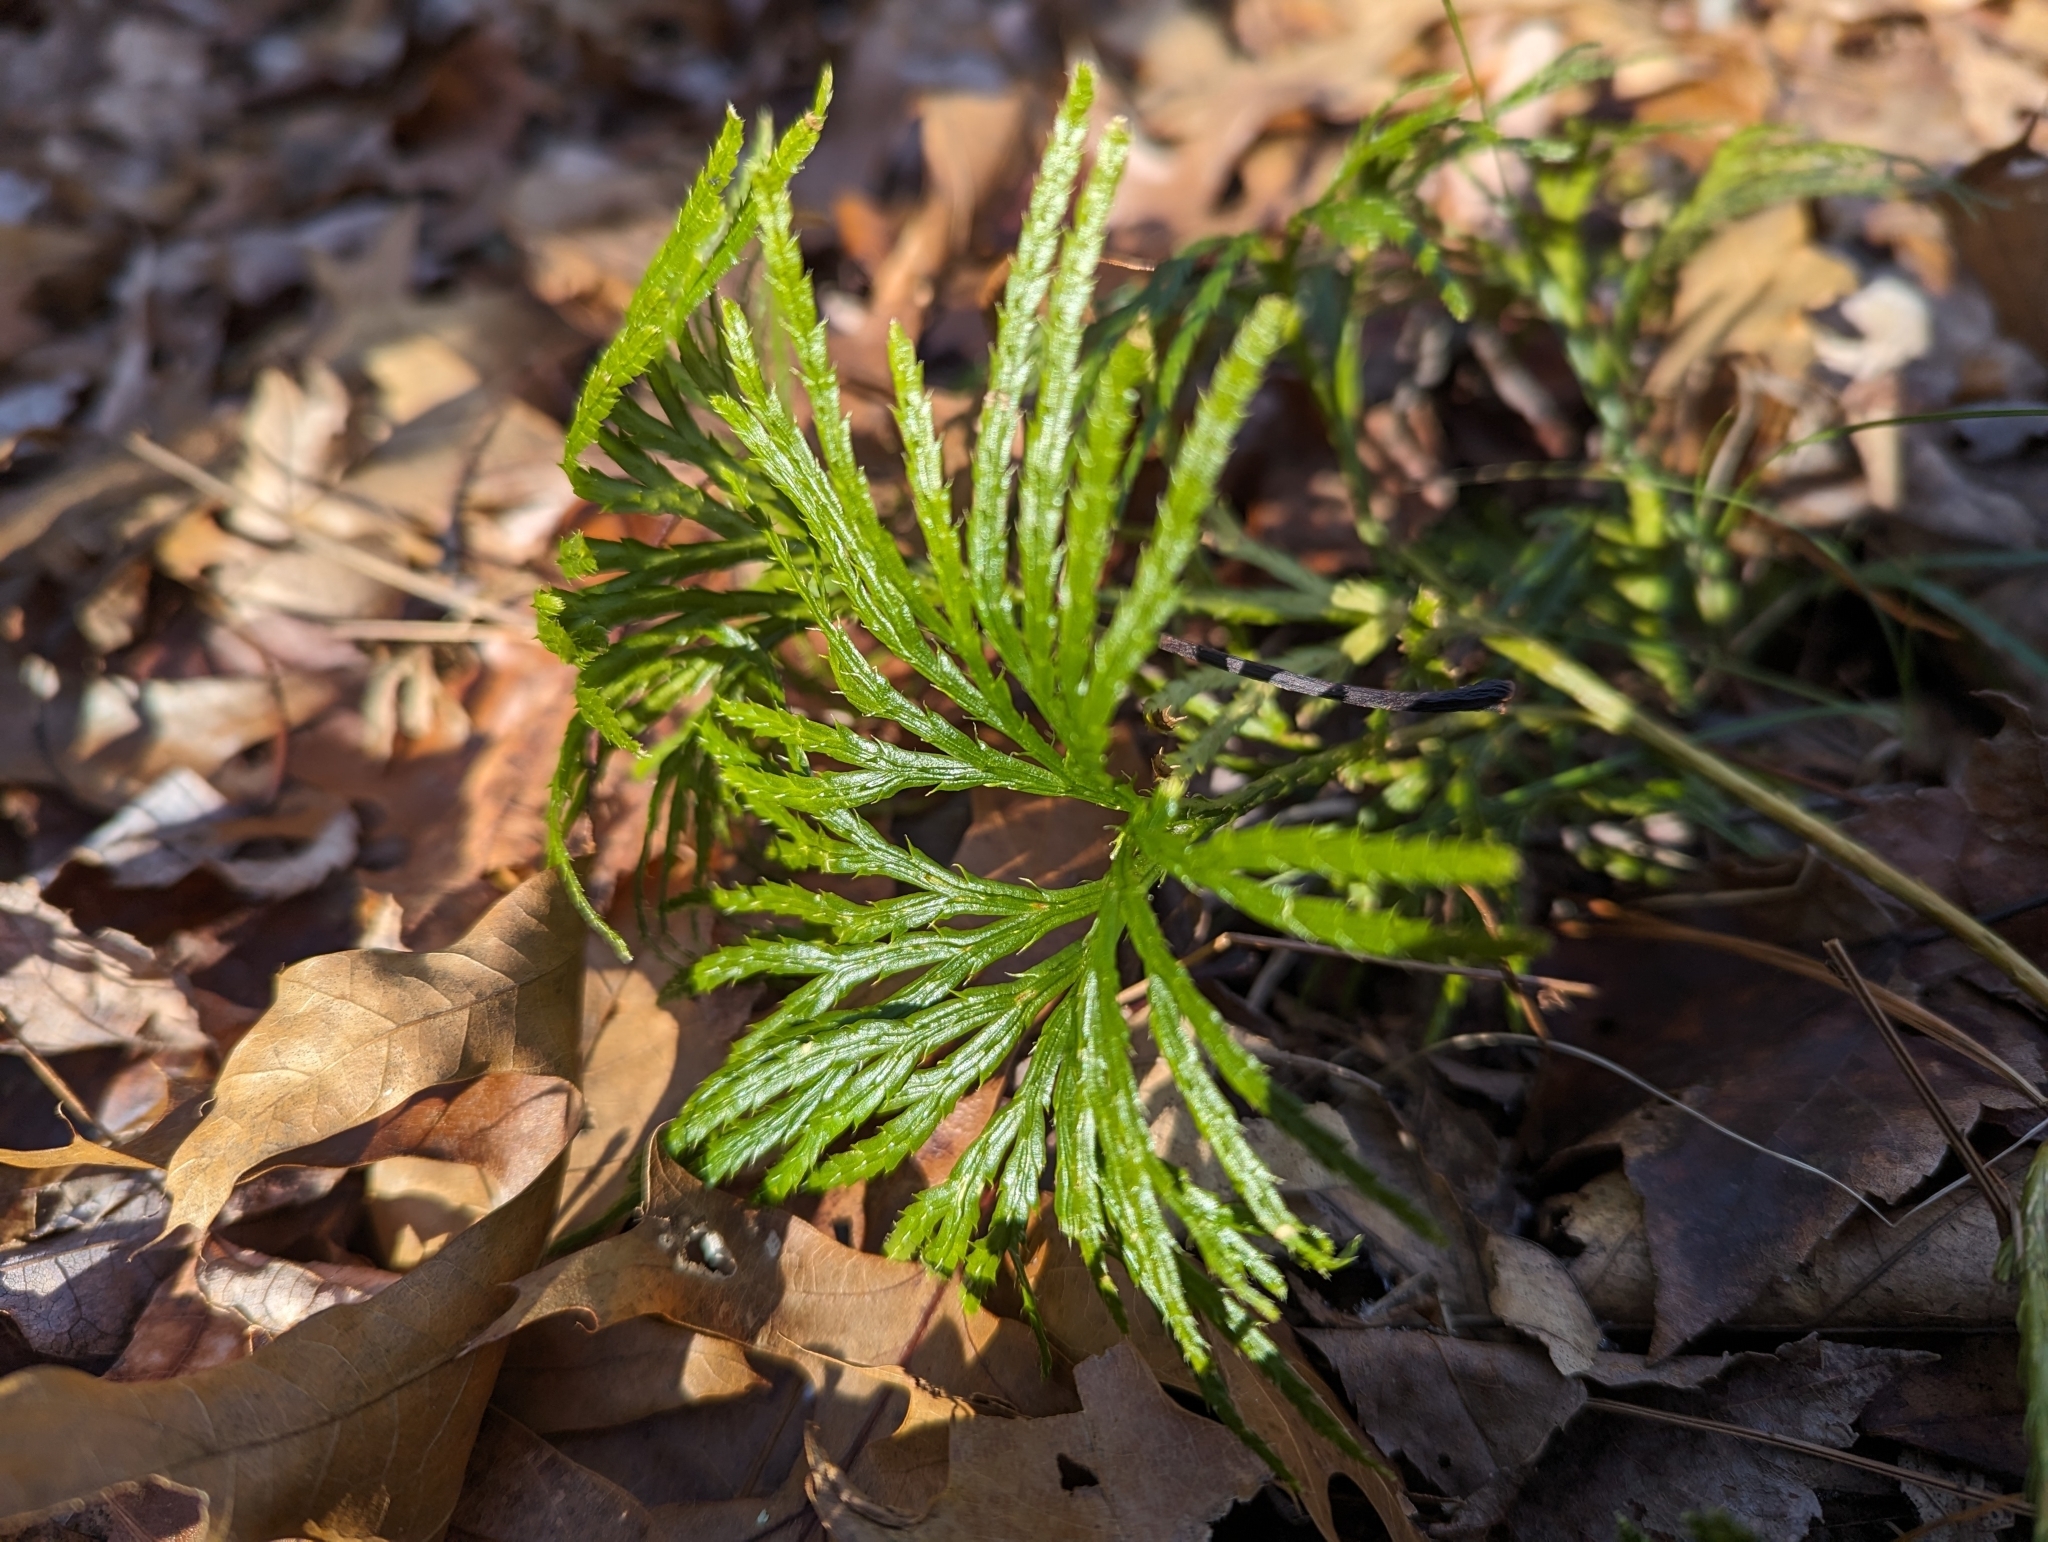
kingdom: Plantae
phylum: Tracheophyta
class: Lycopodiopsida
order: Lycopodiales
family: Lycopodiaceae
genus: Diphasiastrum
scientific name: Diphasiastrum digitatum
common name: Southern running-pine
